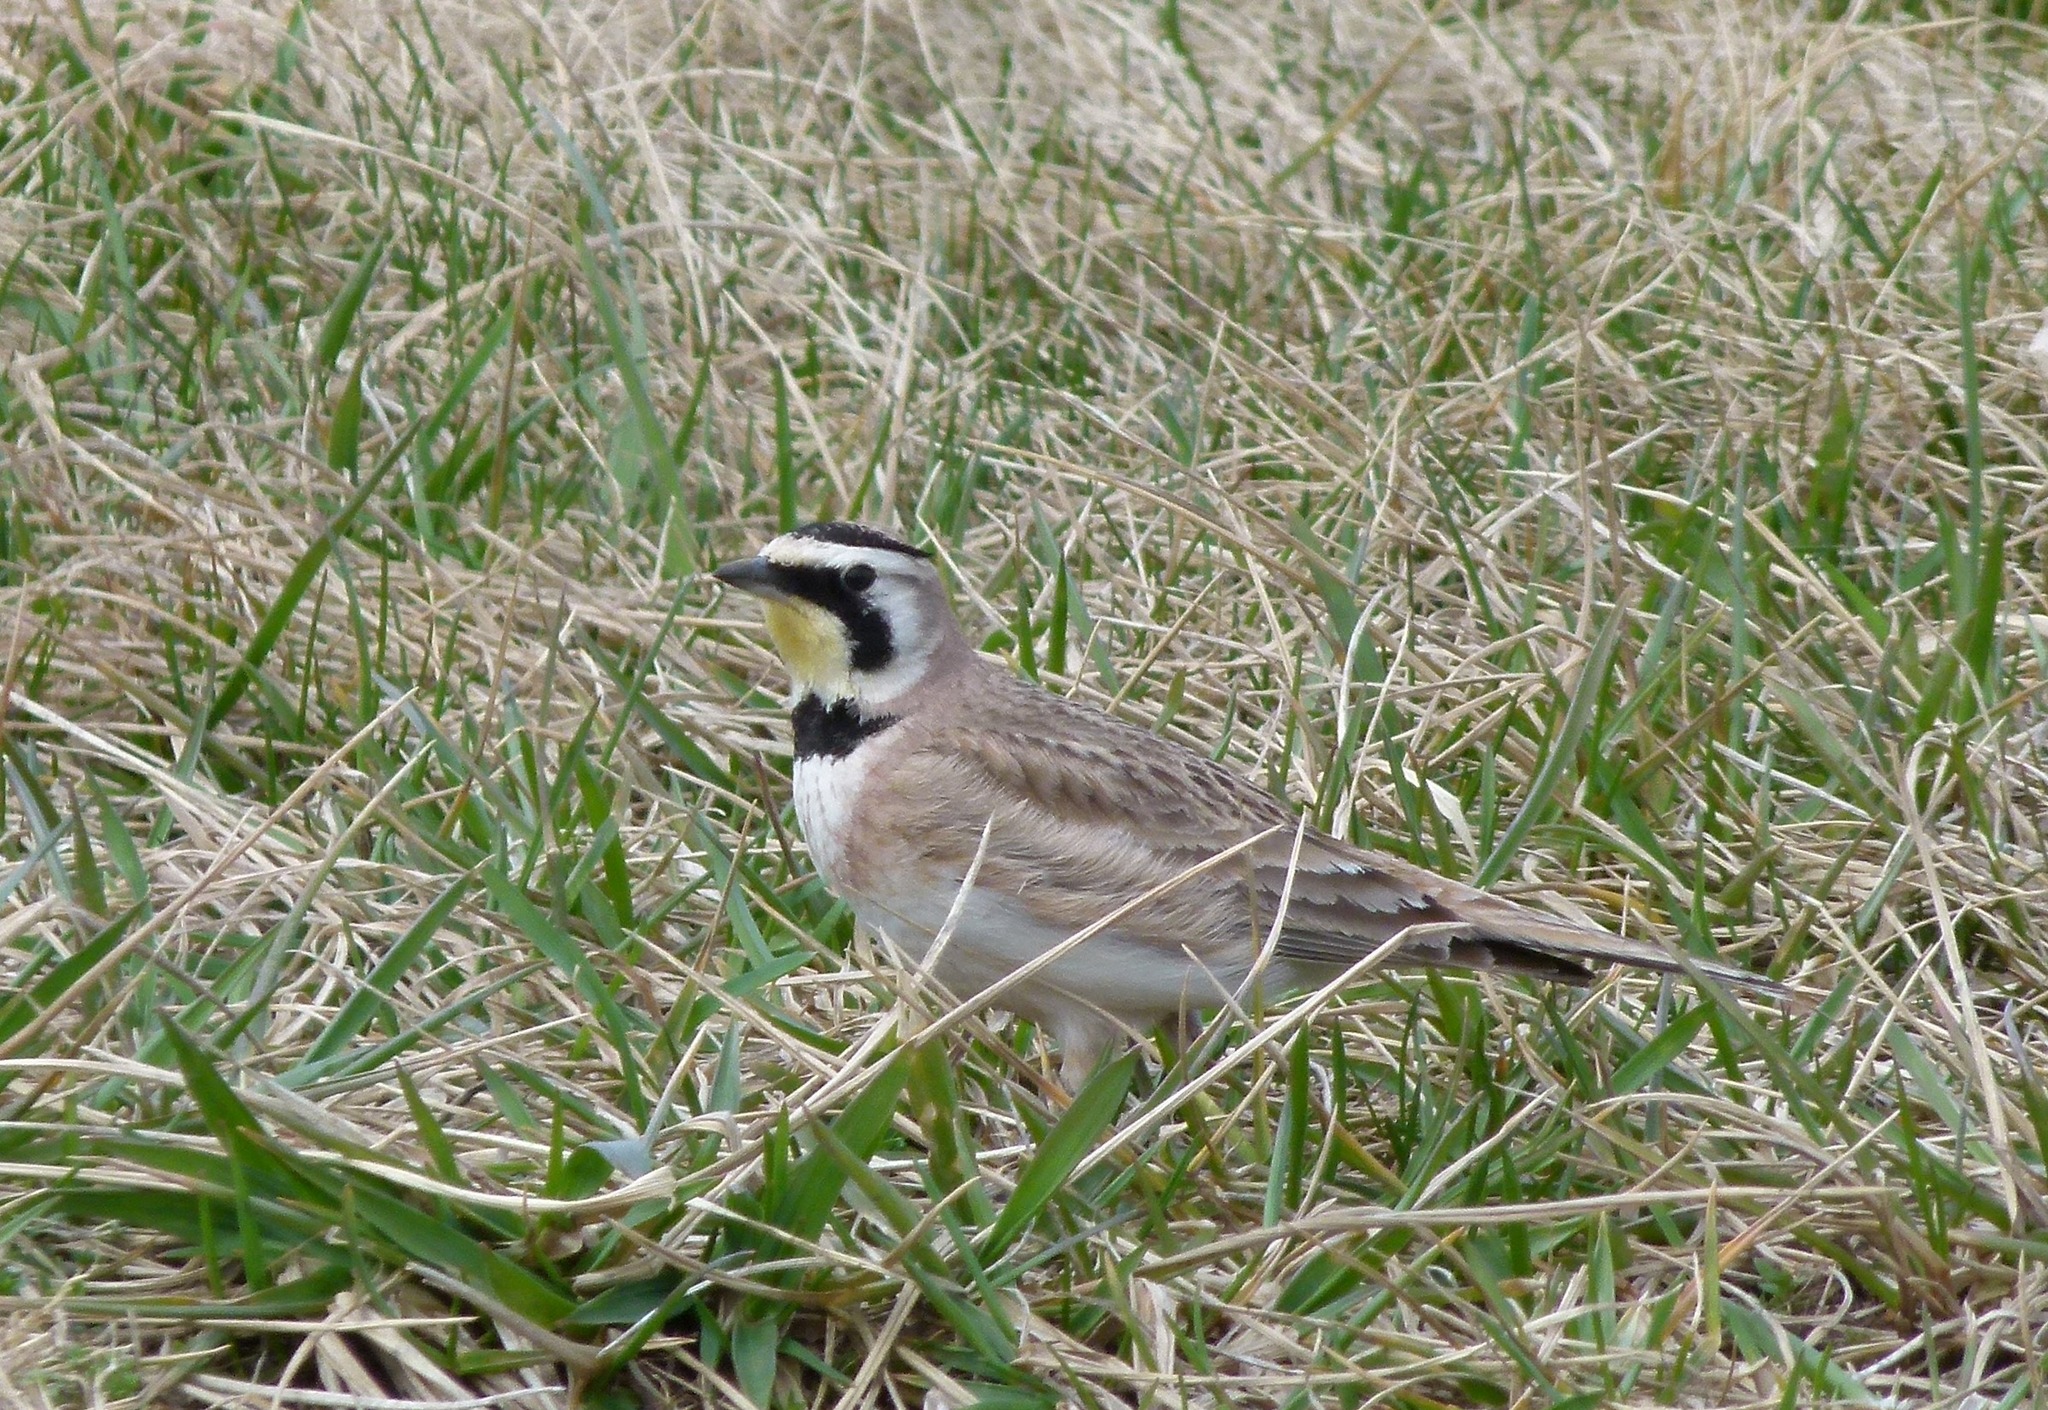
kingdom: Animalia
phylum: Chordata
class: Aves
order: Passeriformes
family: Alaudidae
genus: Eremophila
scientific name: Eremophila alpestris
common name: Horned lark
